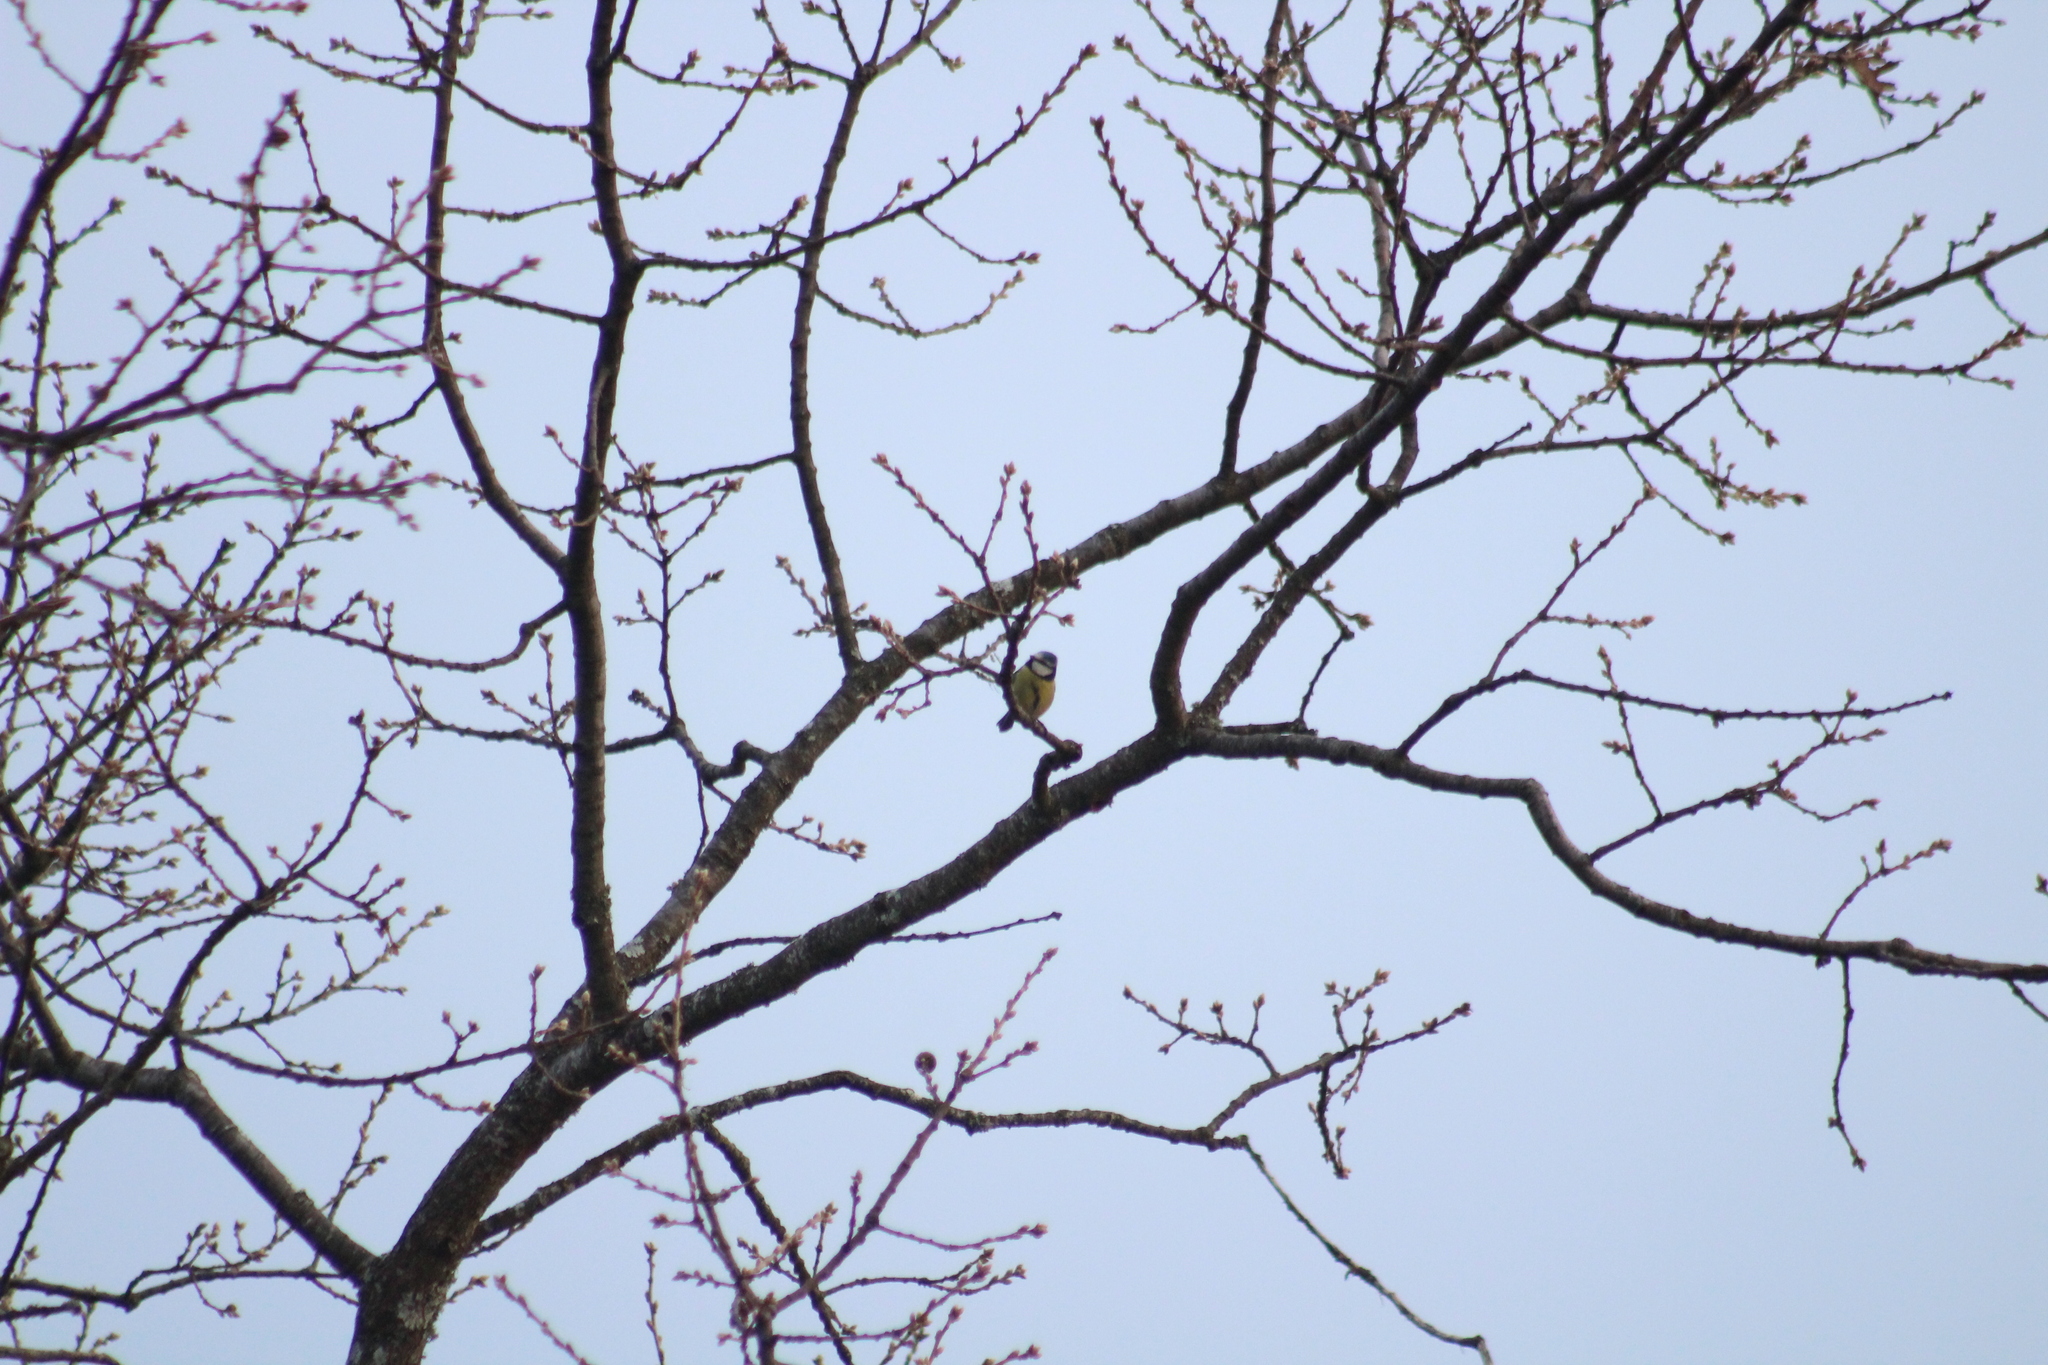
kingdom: Animalia
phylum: Chordata
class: Aves
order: Passeriformes
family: Paridae
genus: Cyanistes
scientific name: Cyanistes caeruleus
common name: Eurasian blue tit
